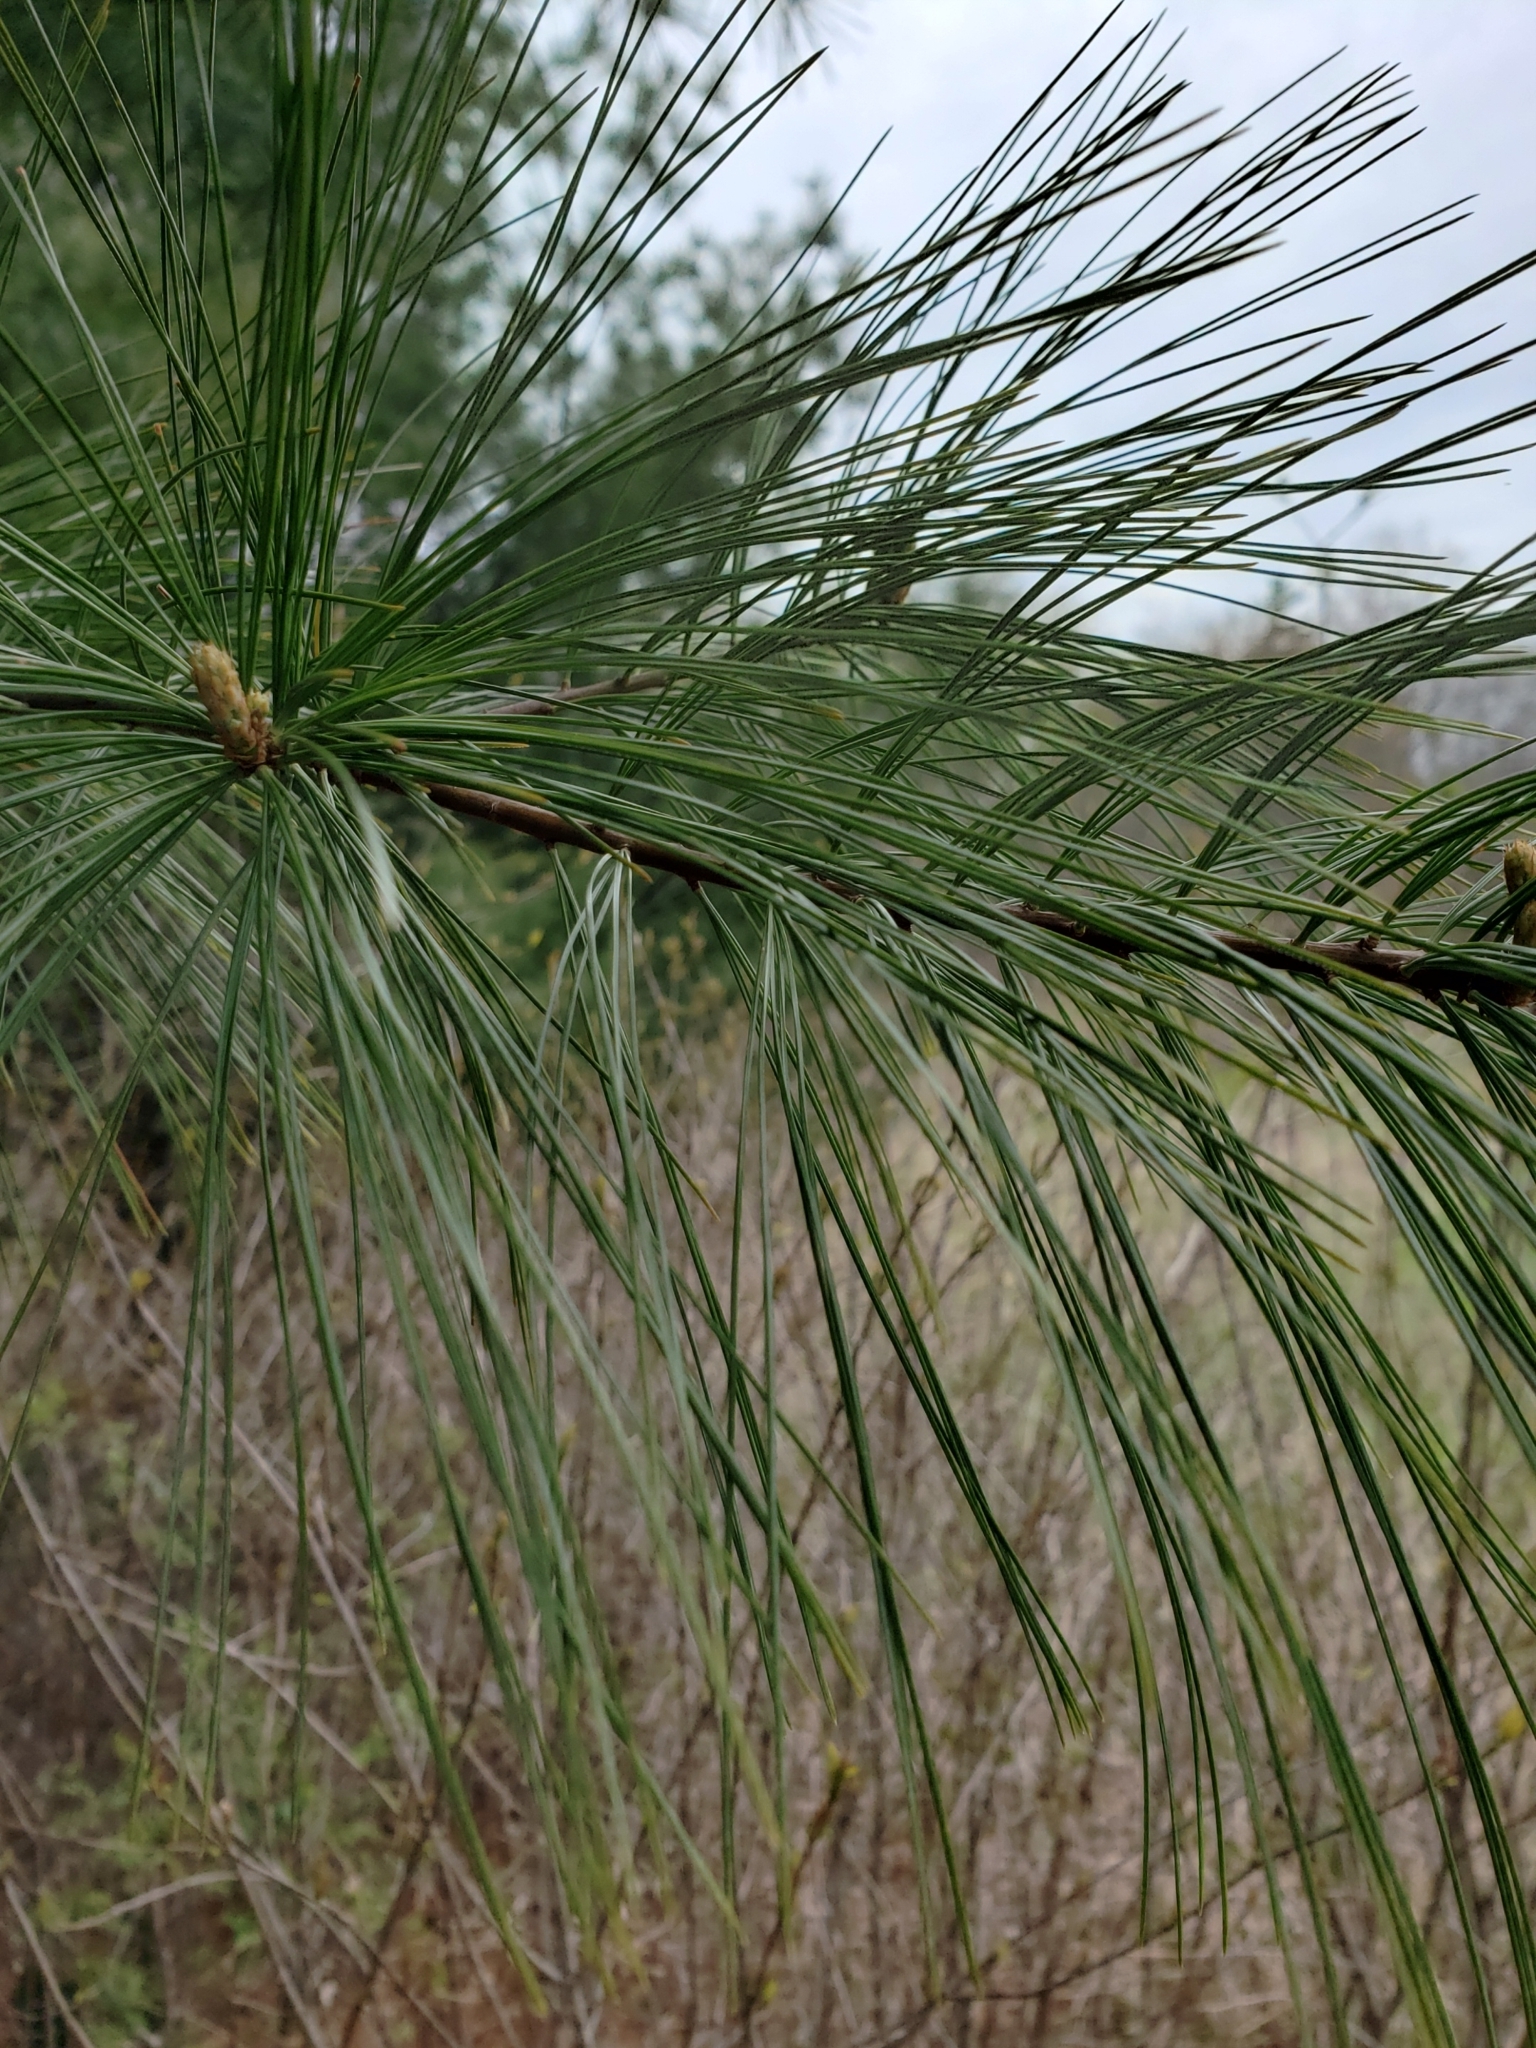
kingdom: Plantae
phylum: Tracheophyta
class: Pinopsida
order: Pinales
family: Pinaceae
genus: Pinus
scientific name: Pinus strobus
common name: Weymouth pine
